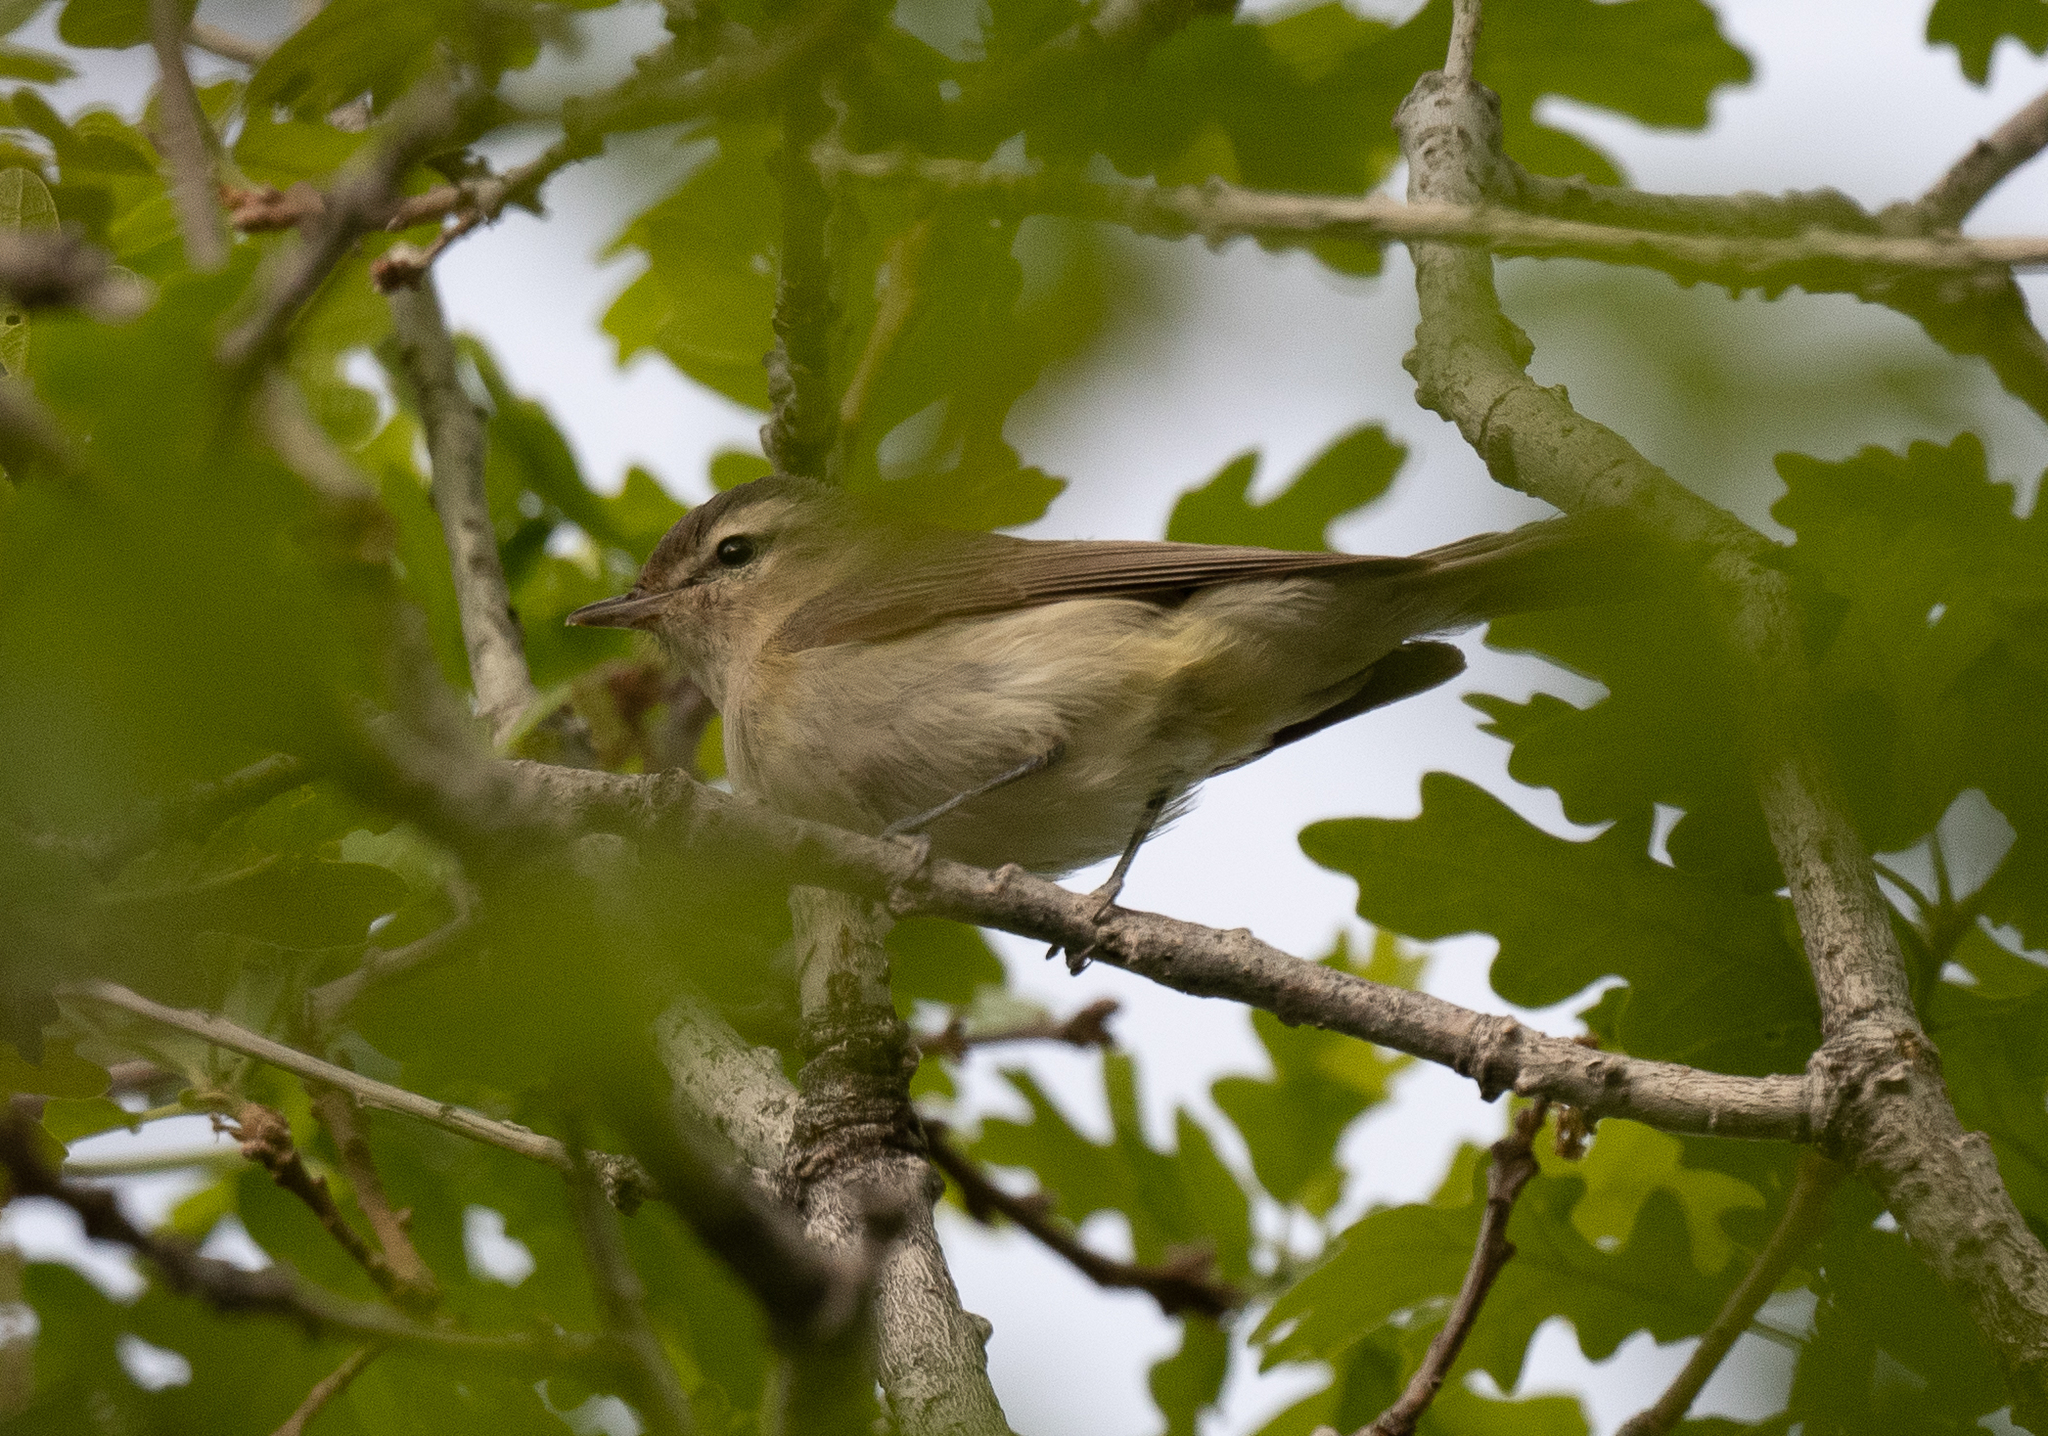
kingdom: Animalia
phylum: Chordata
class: Aves
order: Passeriformes
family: Vireonidae
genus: Vireo
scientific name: Vireo gilvus
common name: Warbling vireo
